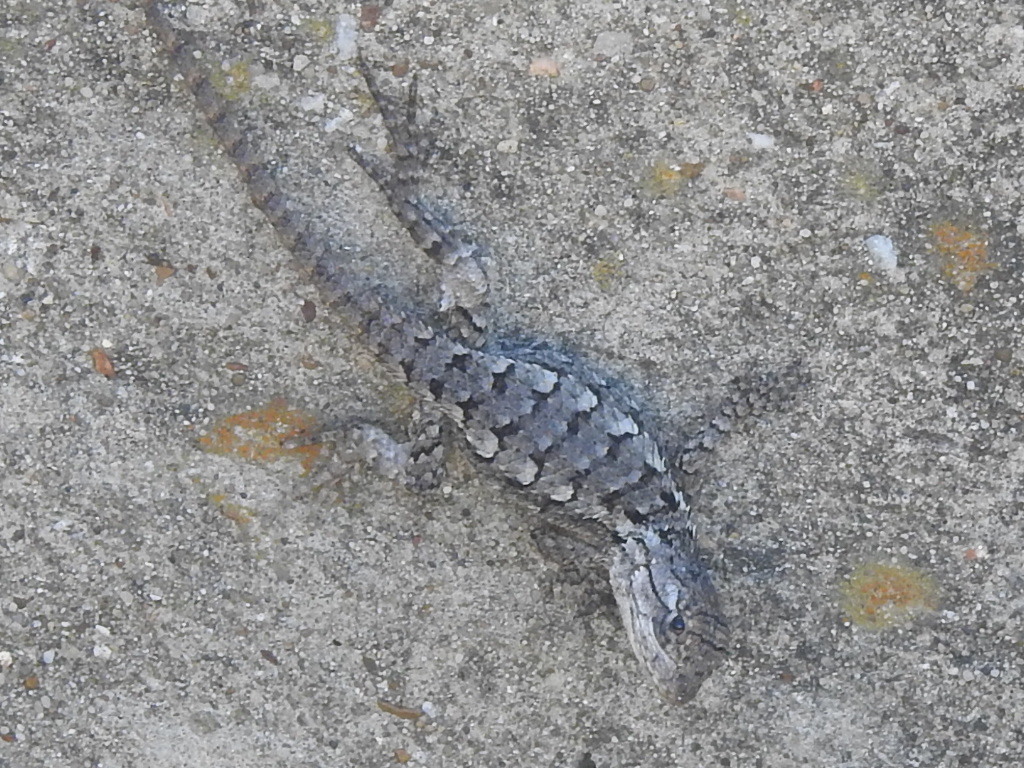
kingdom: Animalia
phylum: Chordata
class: Squamata
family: Phrynosomatidae
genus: Sceloporus
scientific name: Sceloporus olivaceus
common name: Texas spiny lizard
